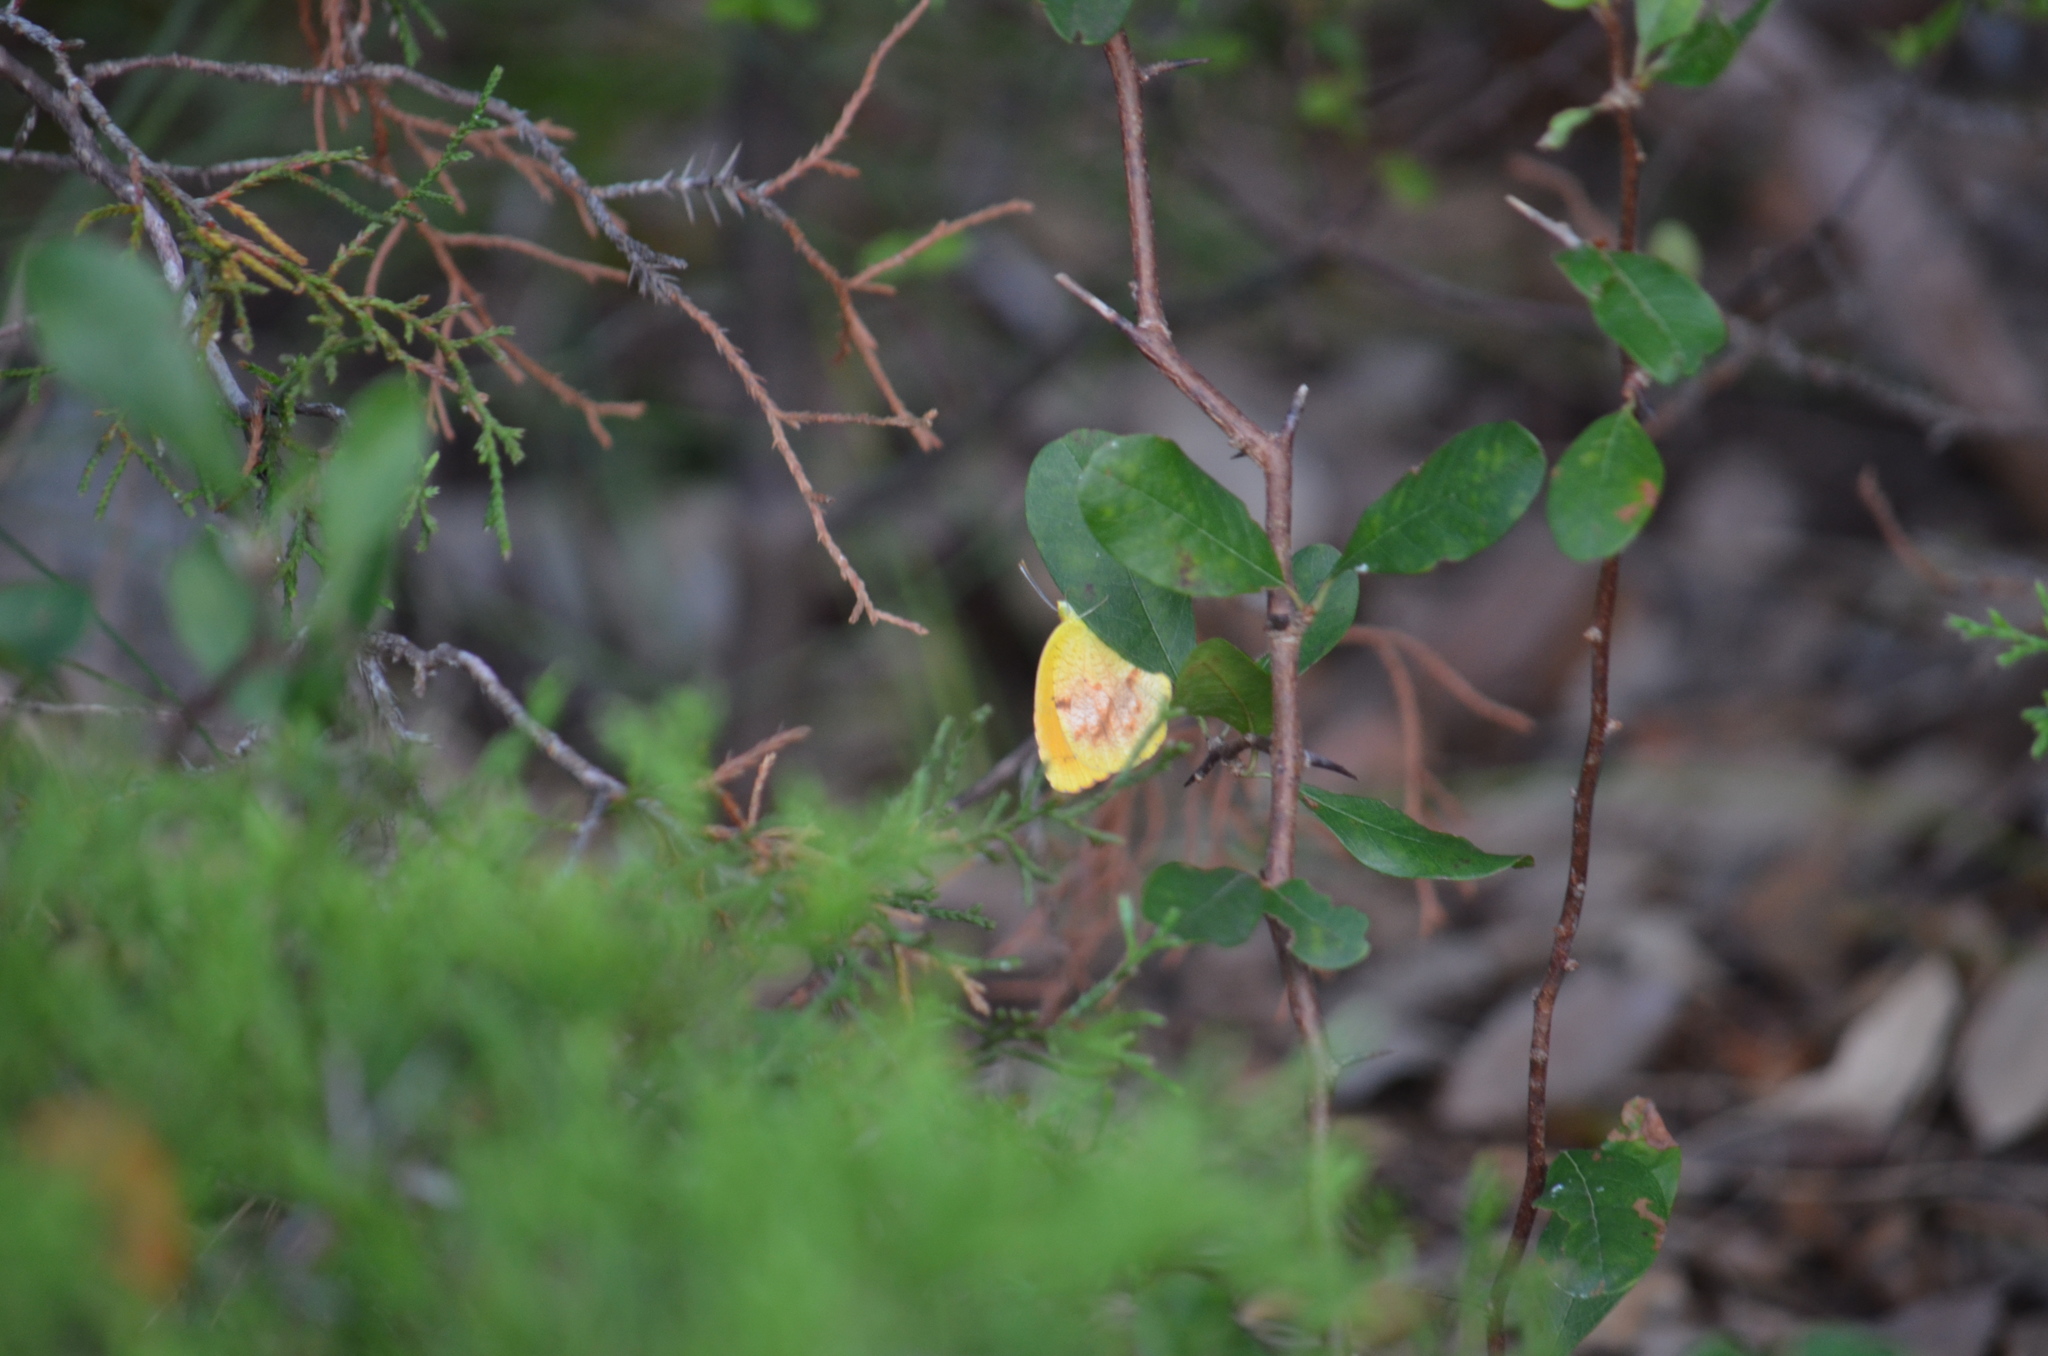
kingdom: Animalia
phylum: Arthropoda
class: Insecta
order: Lepidoptera
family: Pieridae
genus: Abaeis
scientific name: Abaeis nicippe
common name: Sleepy orange
